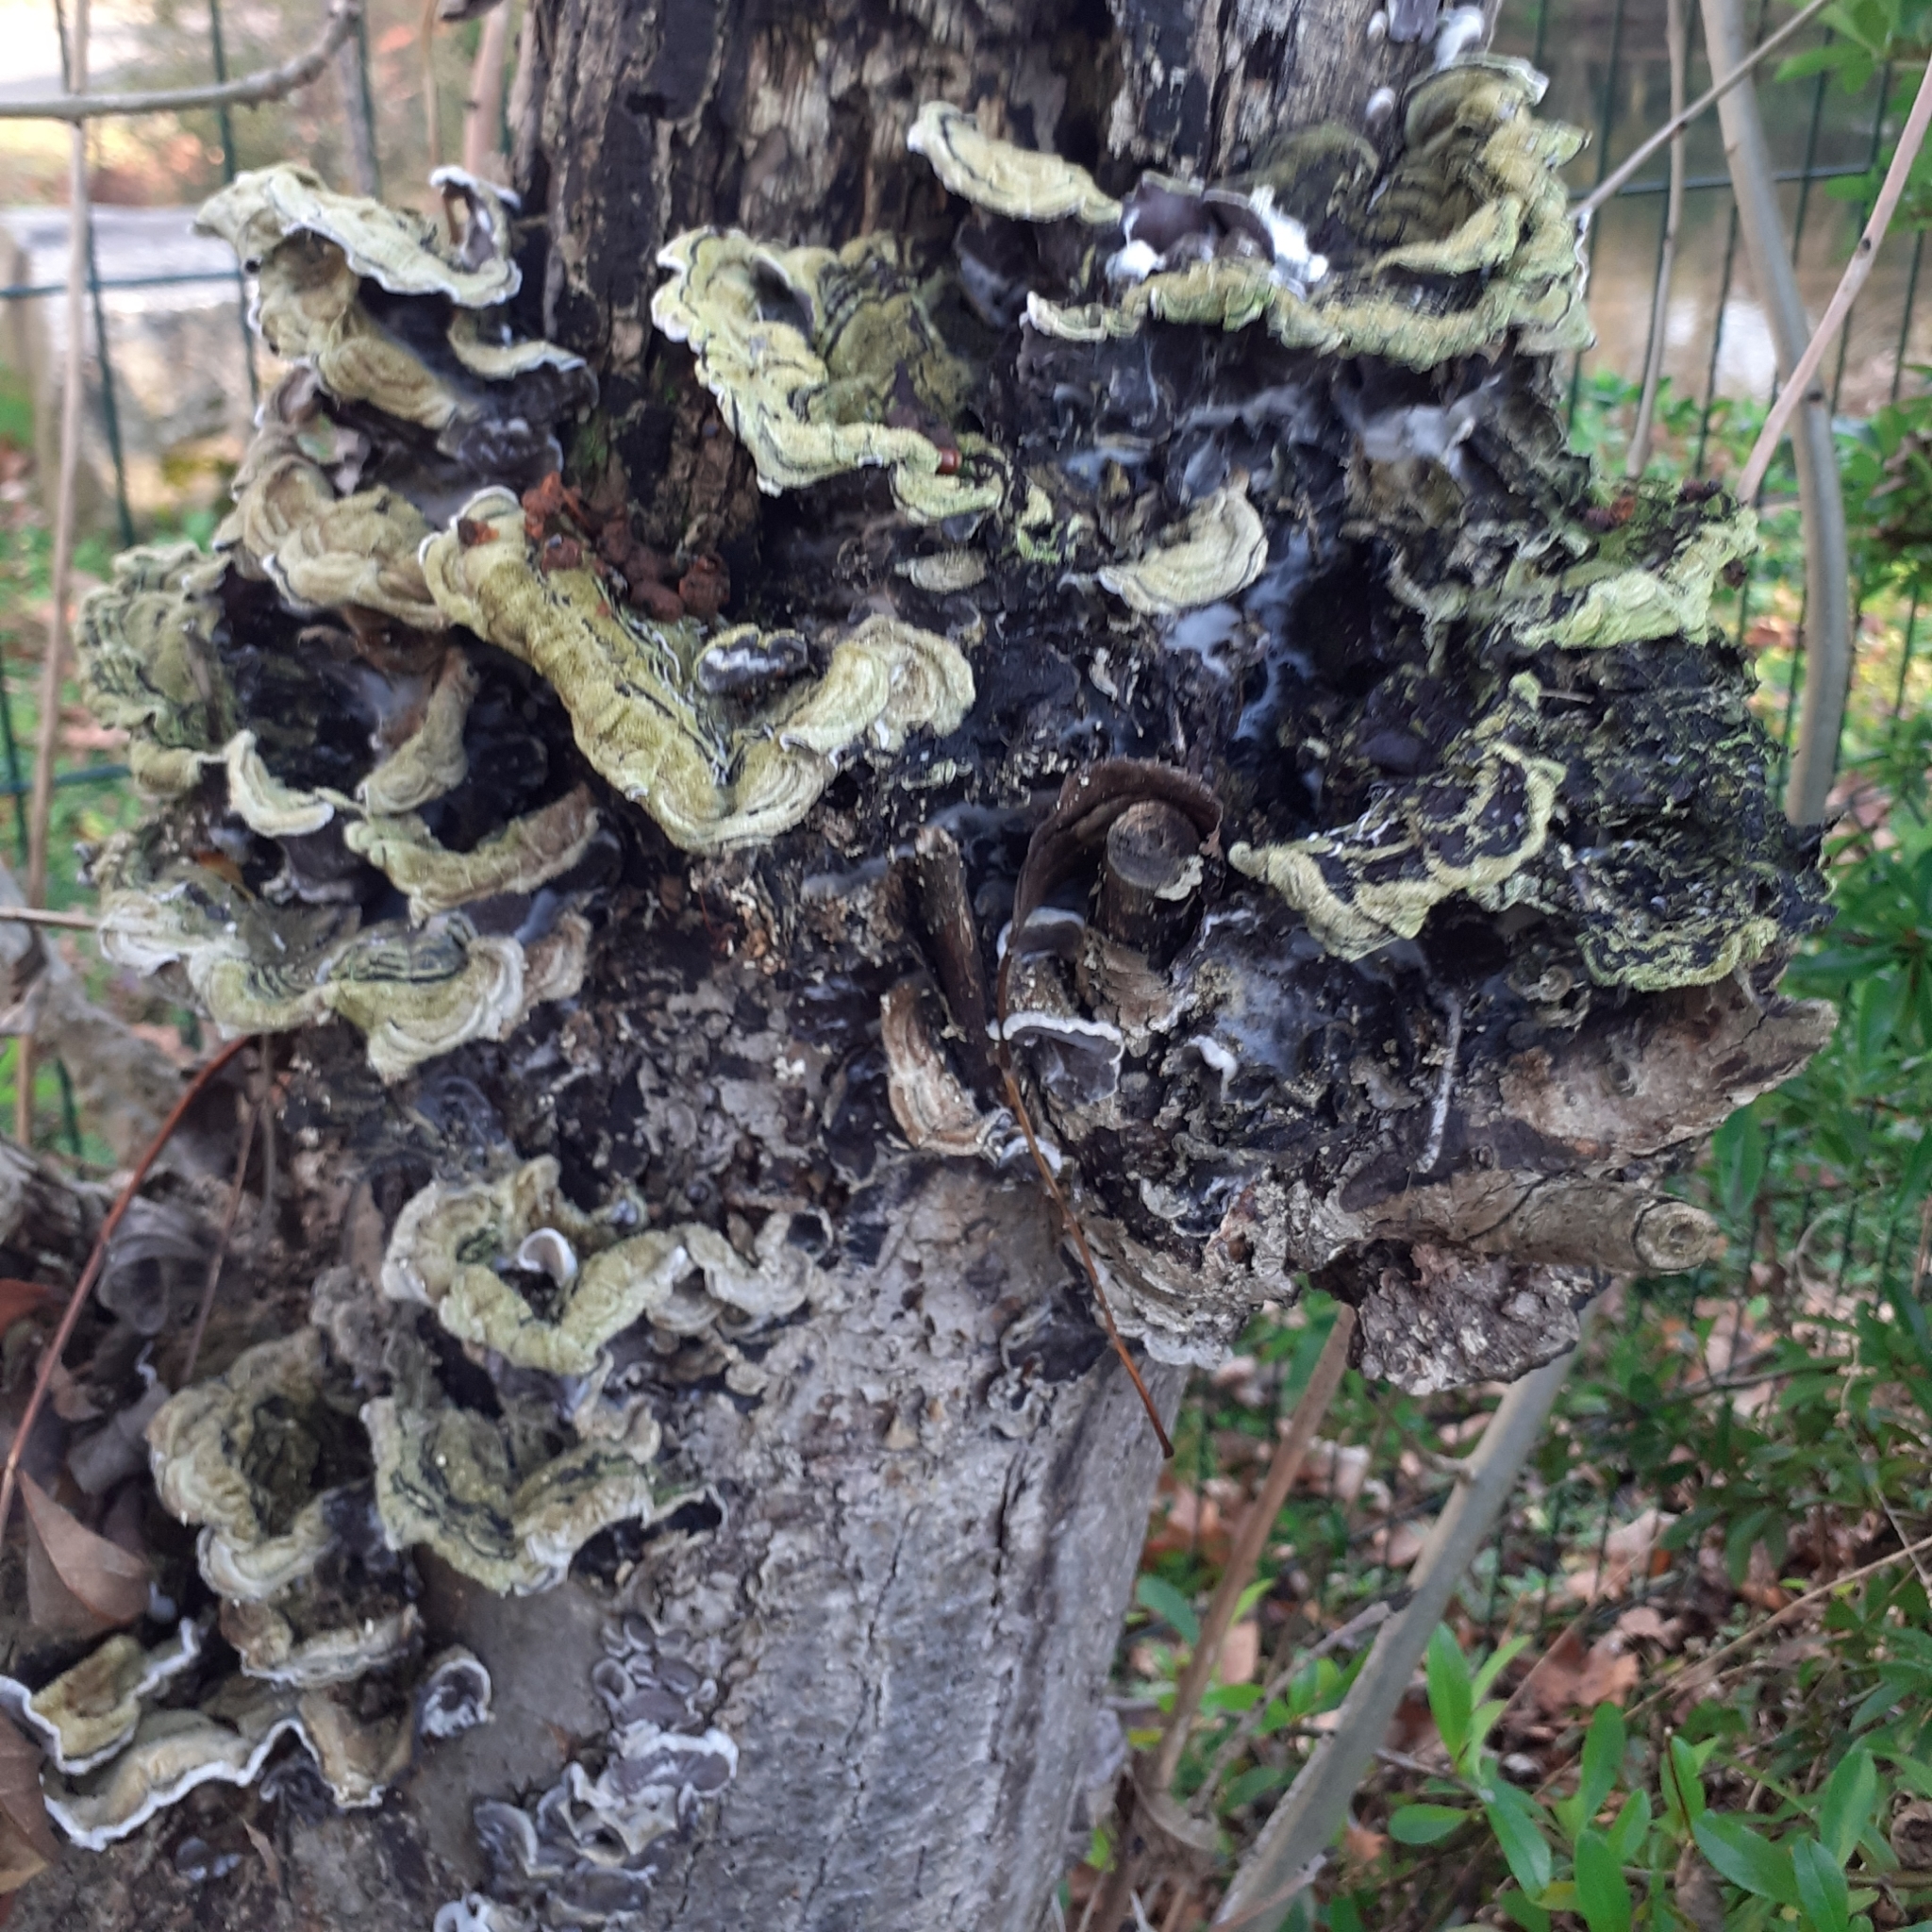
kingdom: Fungi
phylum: Basidiomycota
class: Agaricomycetes
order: Auriculariales
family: Auriculariaceae
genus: Auricularia
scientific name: Auricularia mesenterica
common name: Tripe fungus
